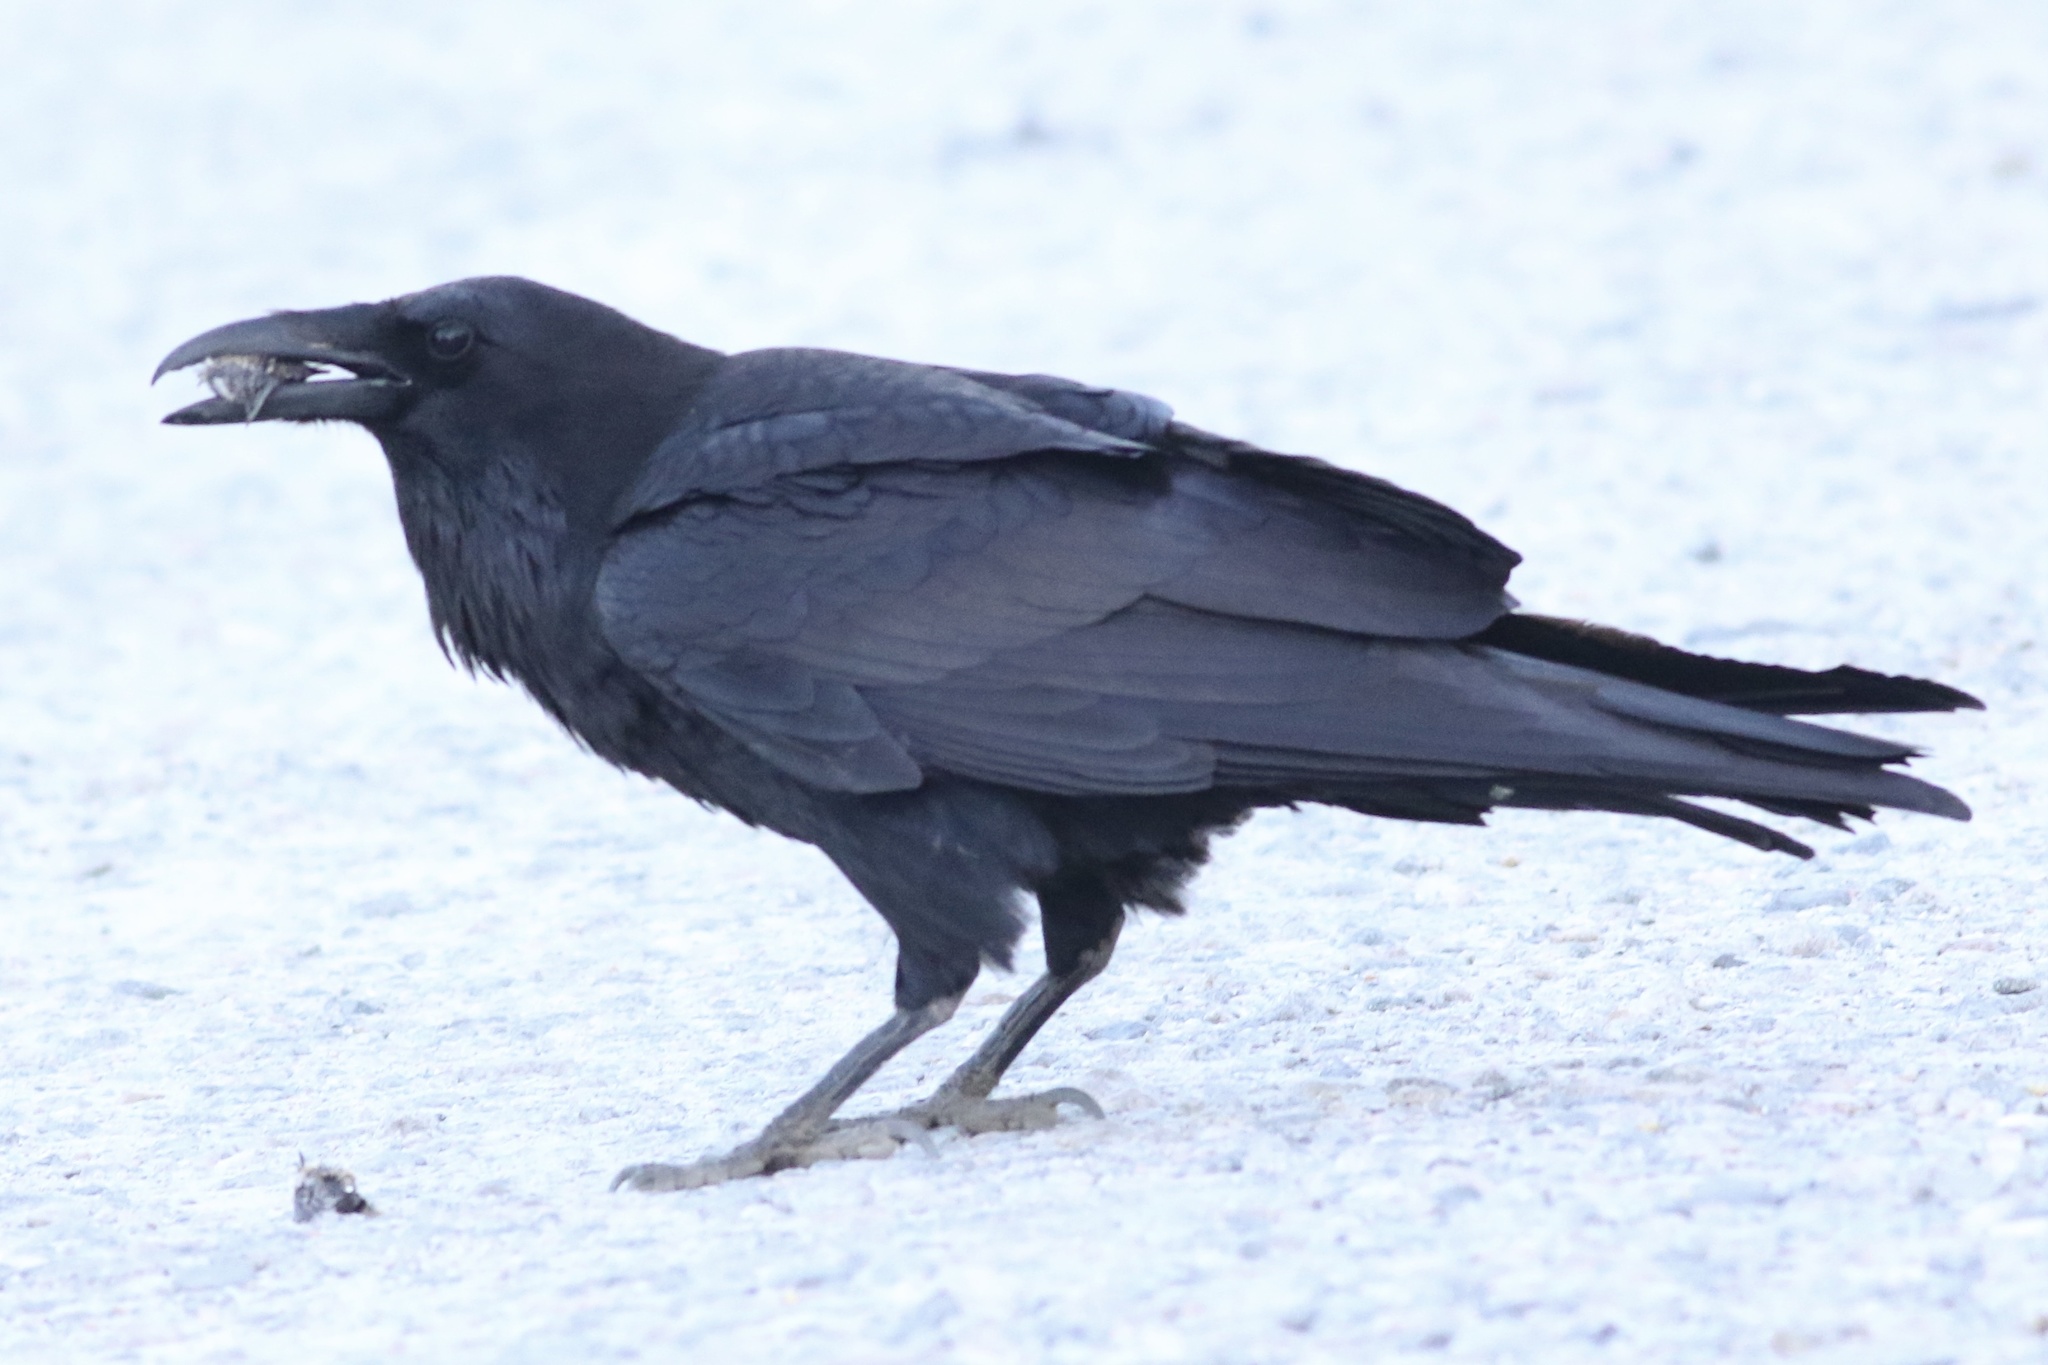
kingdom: Animalia
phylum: Chordata
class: Aves
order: Passeriformes
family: Corvidae
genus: Corvus
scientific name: Corvus corax
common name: Common raven
